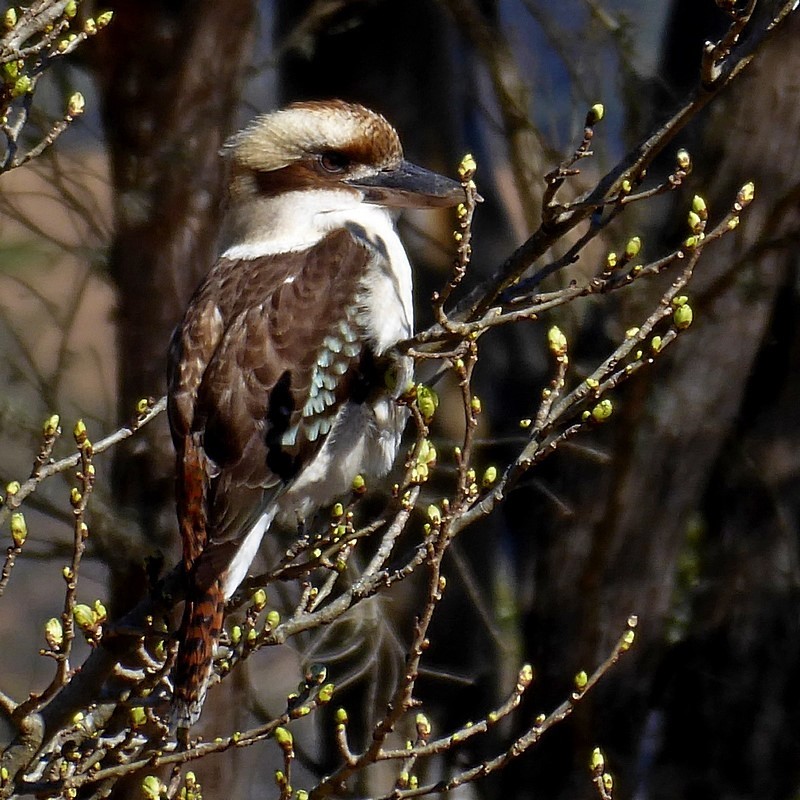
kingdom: Animalia
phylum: Chordata
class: Aves
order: Coraciiformes
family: Alcedinidae
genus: Dacelo
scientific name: Dacelo novaeguineae
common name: Laughing kookaburra
